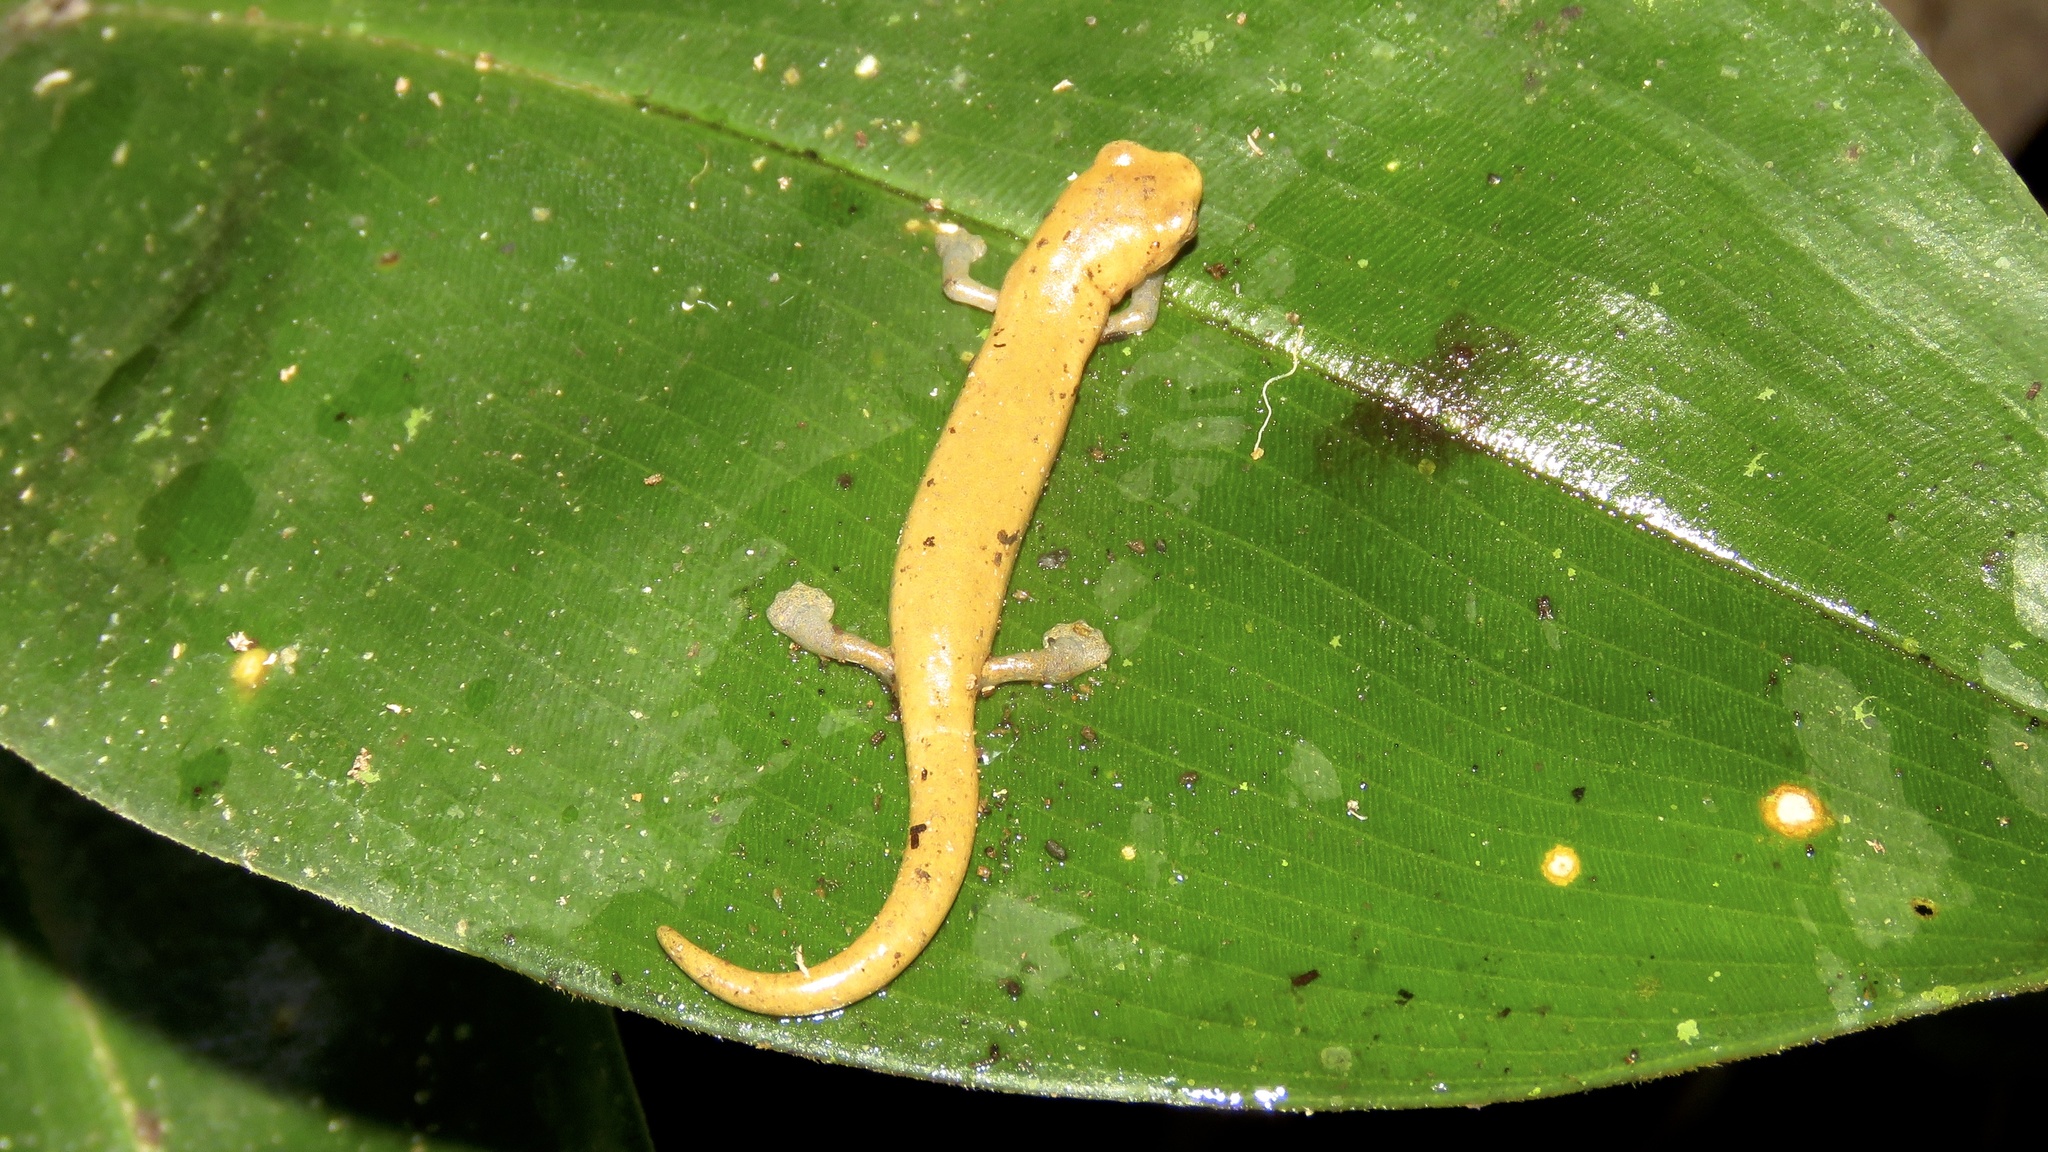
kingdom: Animalia
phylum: Chordata
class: Amphibia
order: Caudata
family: Plethodontidae
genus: Bolitoglossa
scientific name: Bolitoglossa lignicolor
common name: Camron mushroomtongue salamander
